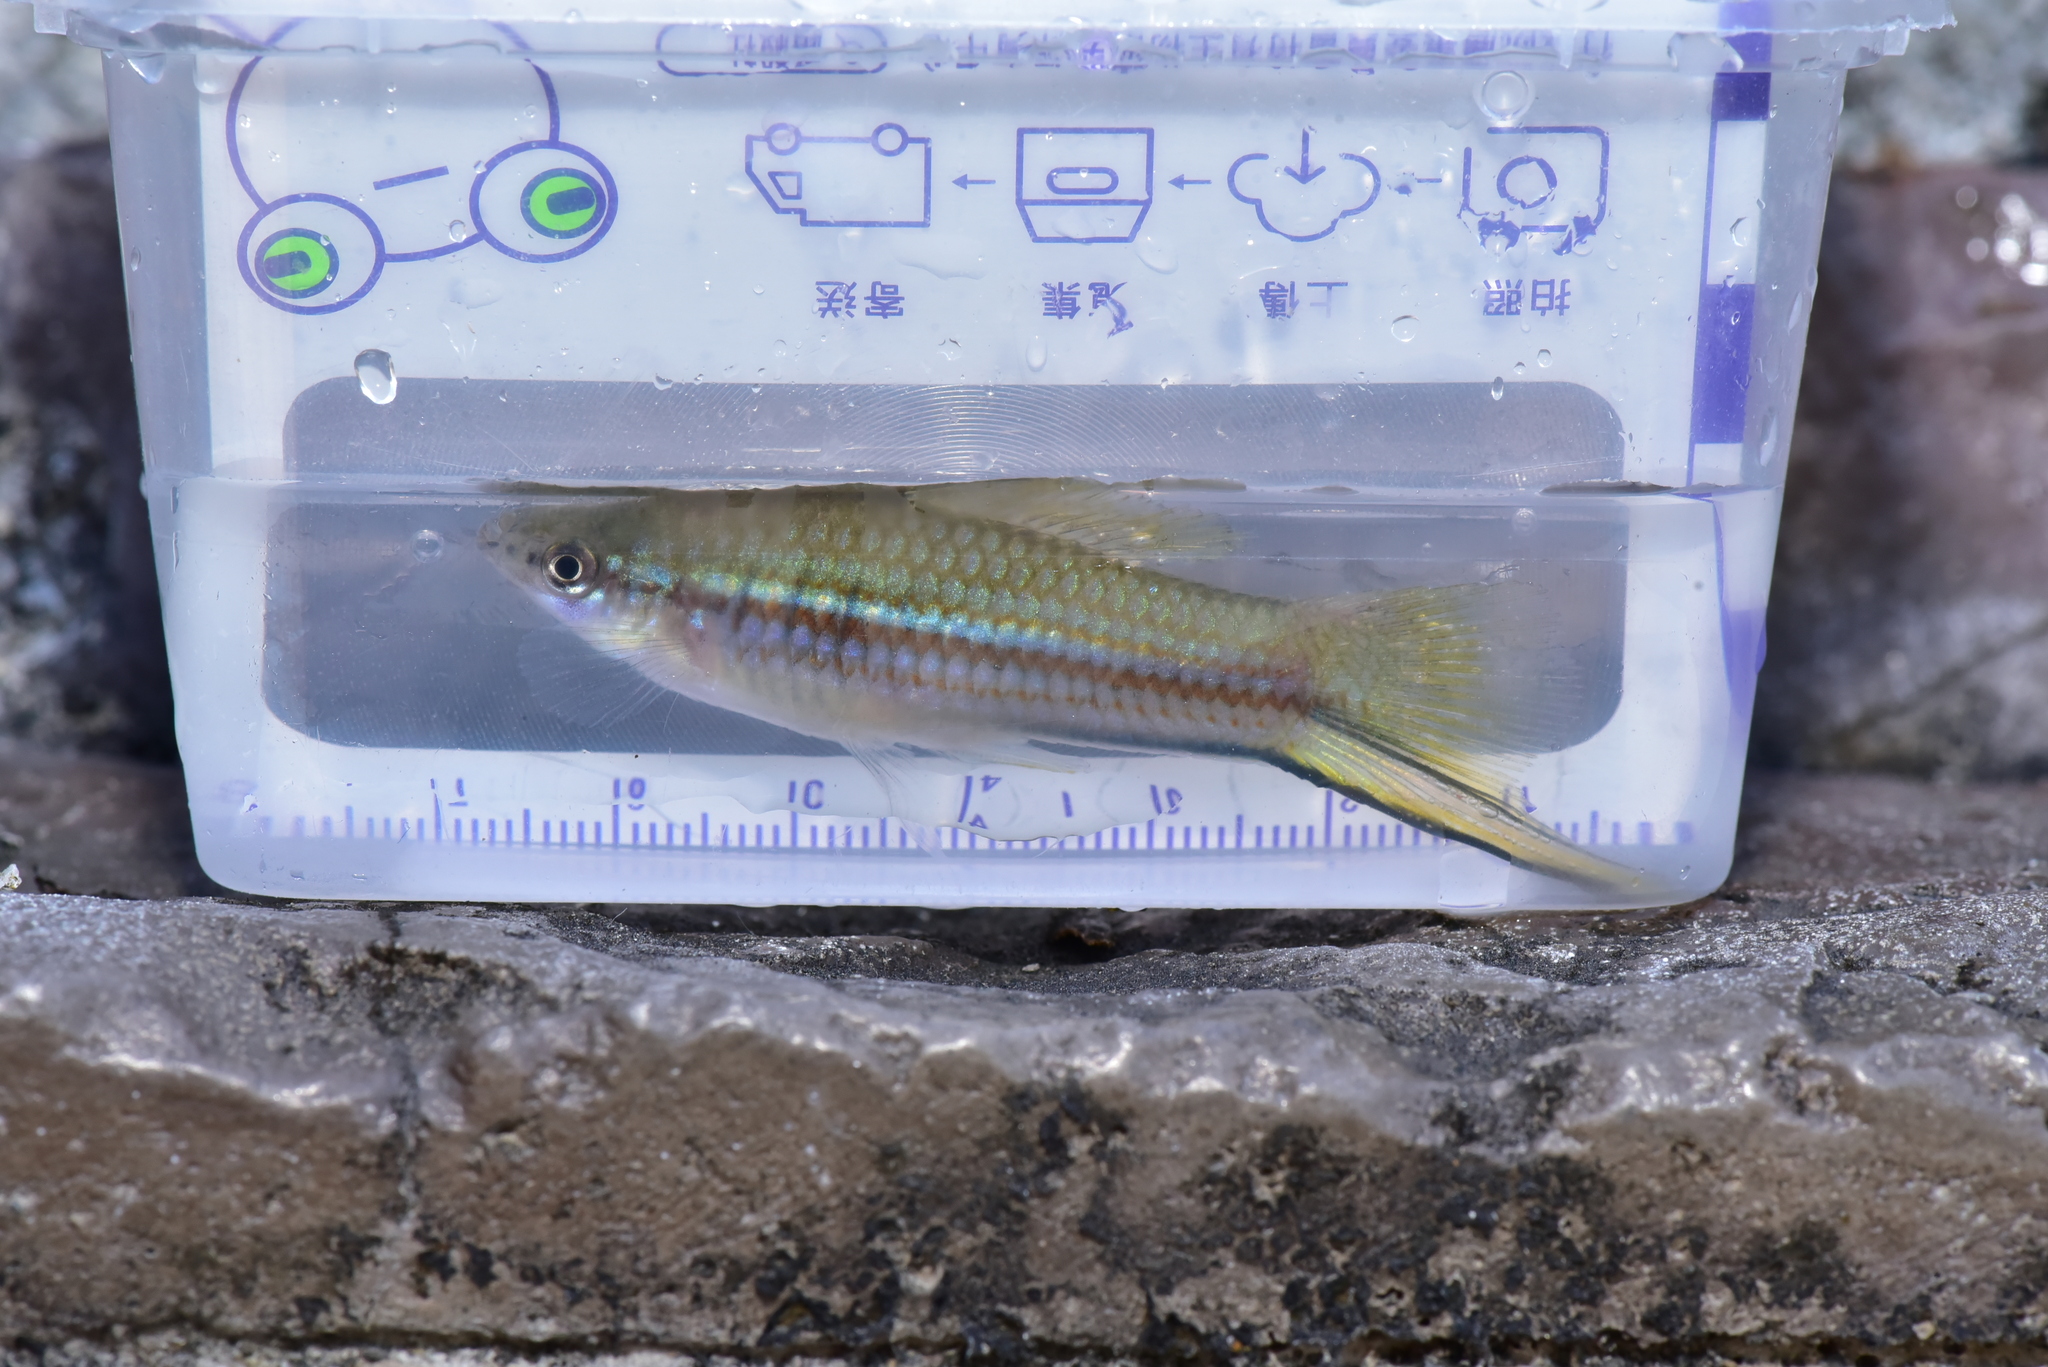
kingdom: Animalia
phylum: Chordata
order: Cyprinodontiformes
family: Poeciliidae
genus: Xiphophorus
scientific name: Xiphophorus hellerii
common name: Green swordtail
